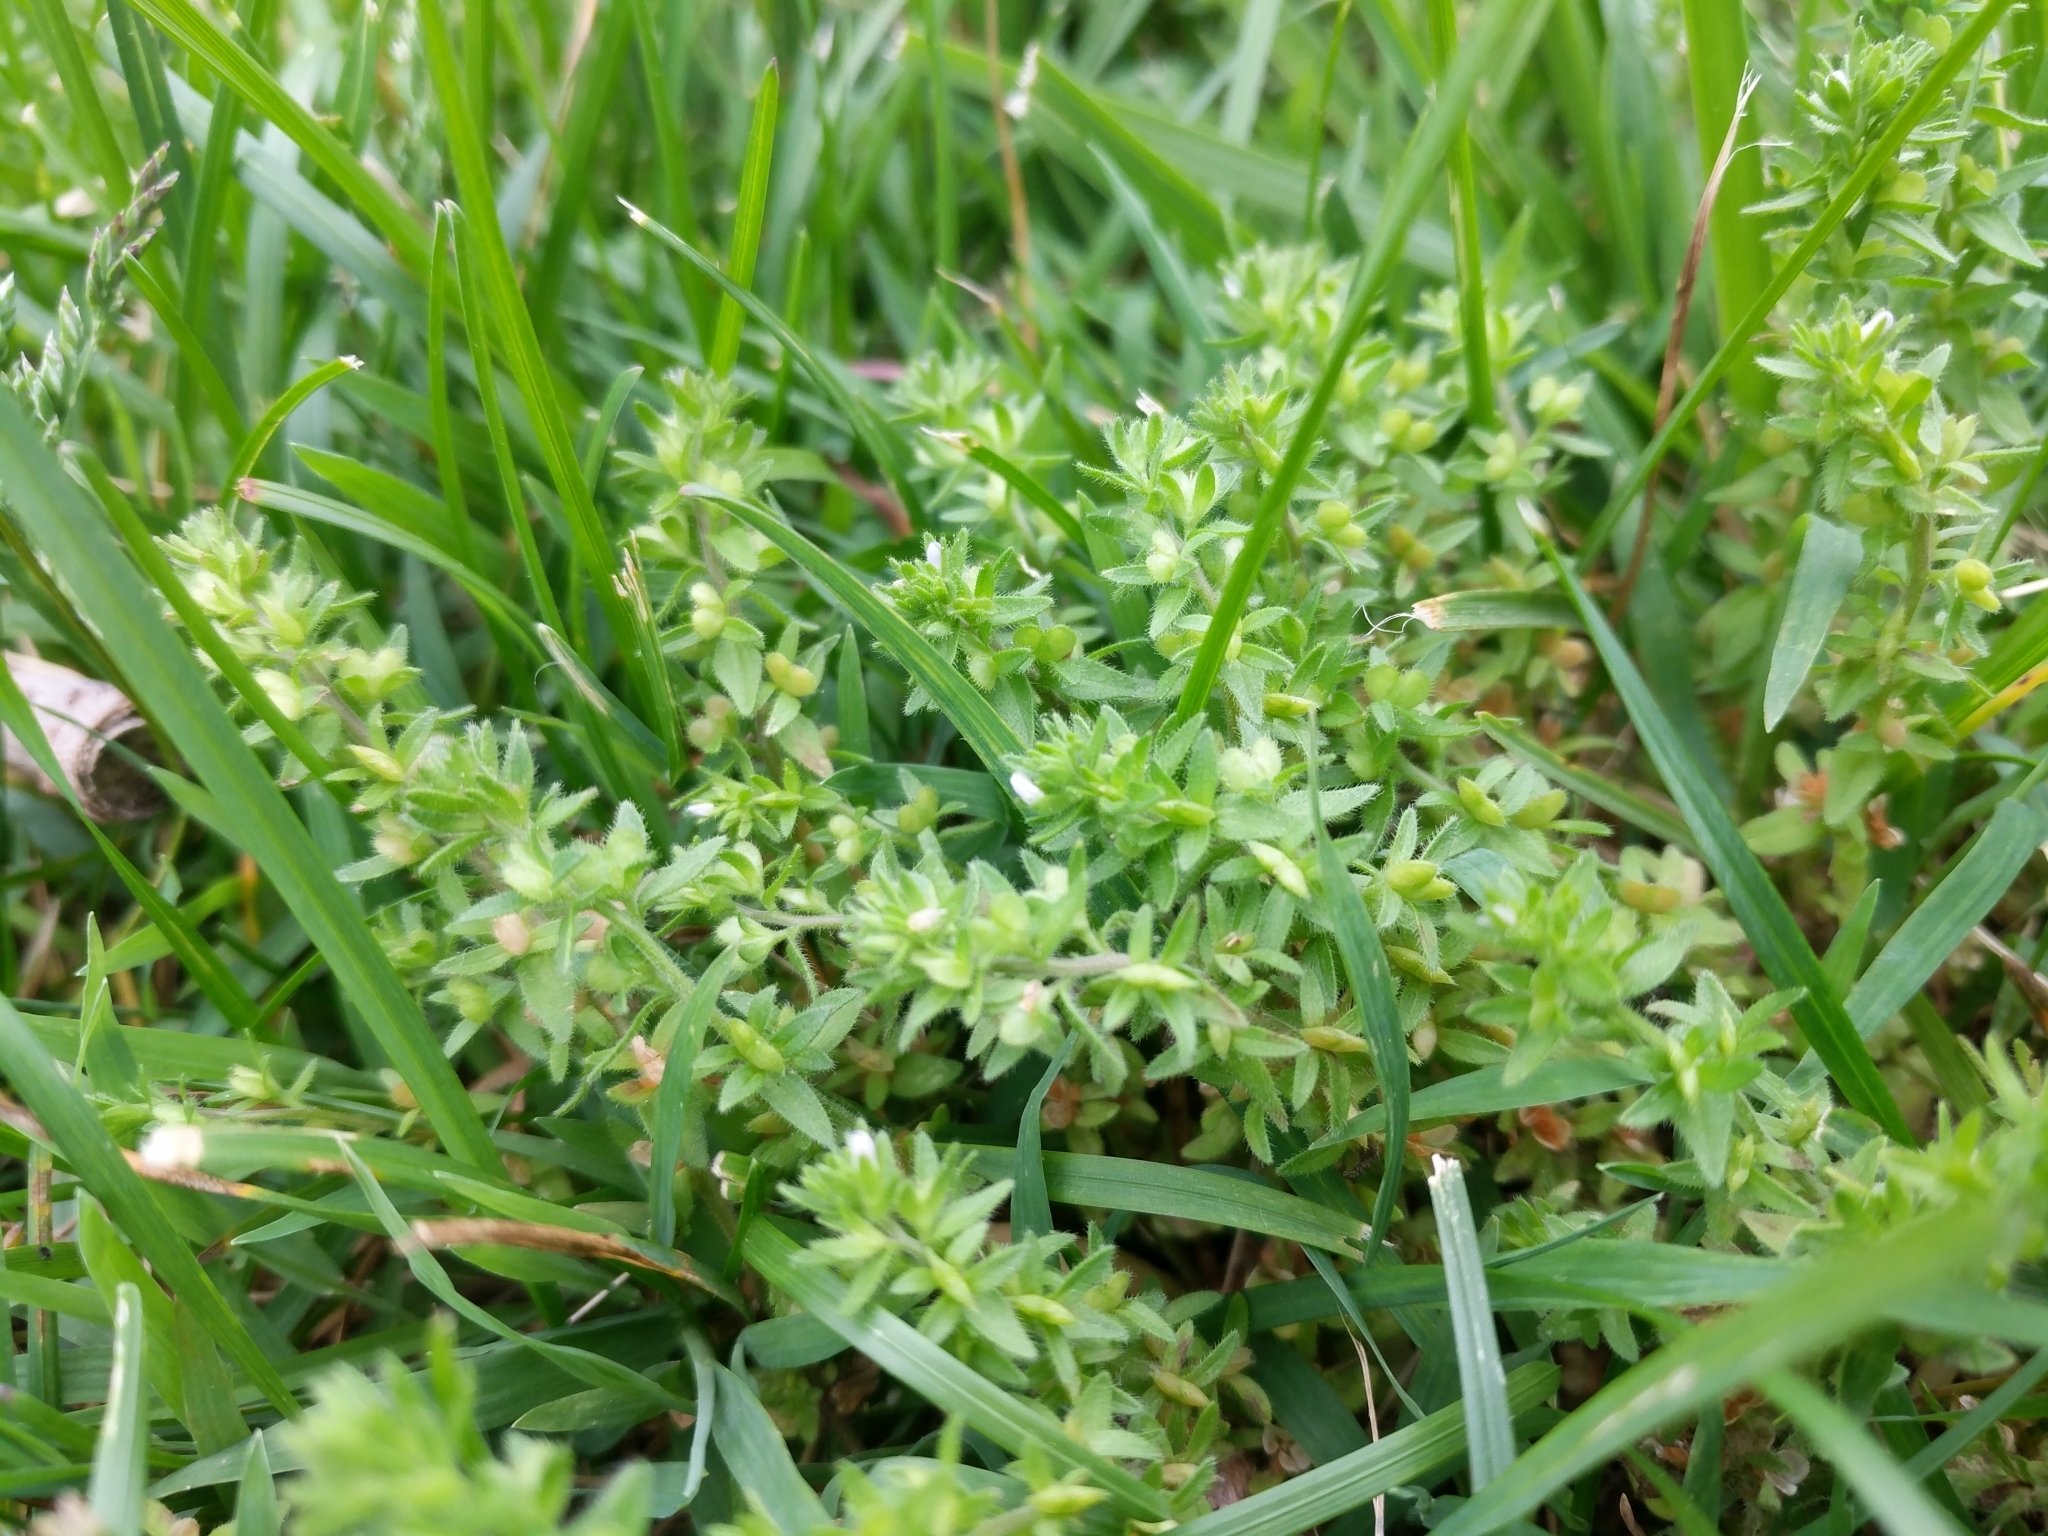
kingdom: Plantae
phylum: Tracheophyta
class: Magnoliopsida
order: Lamiales
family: Plantaginaceae
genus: Veronica
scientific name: Veronica arvensis
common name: Corn speedwell
